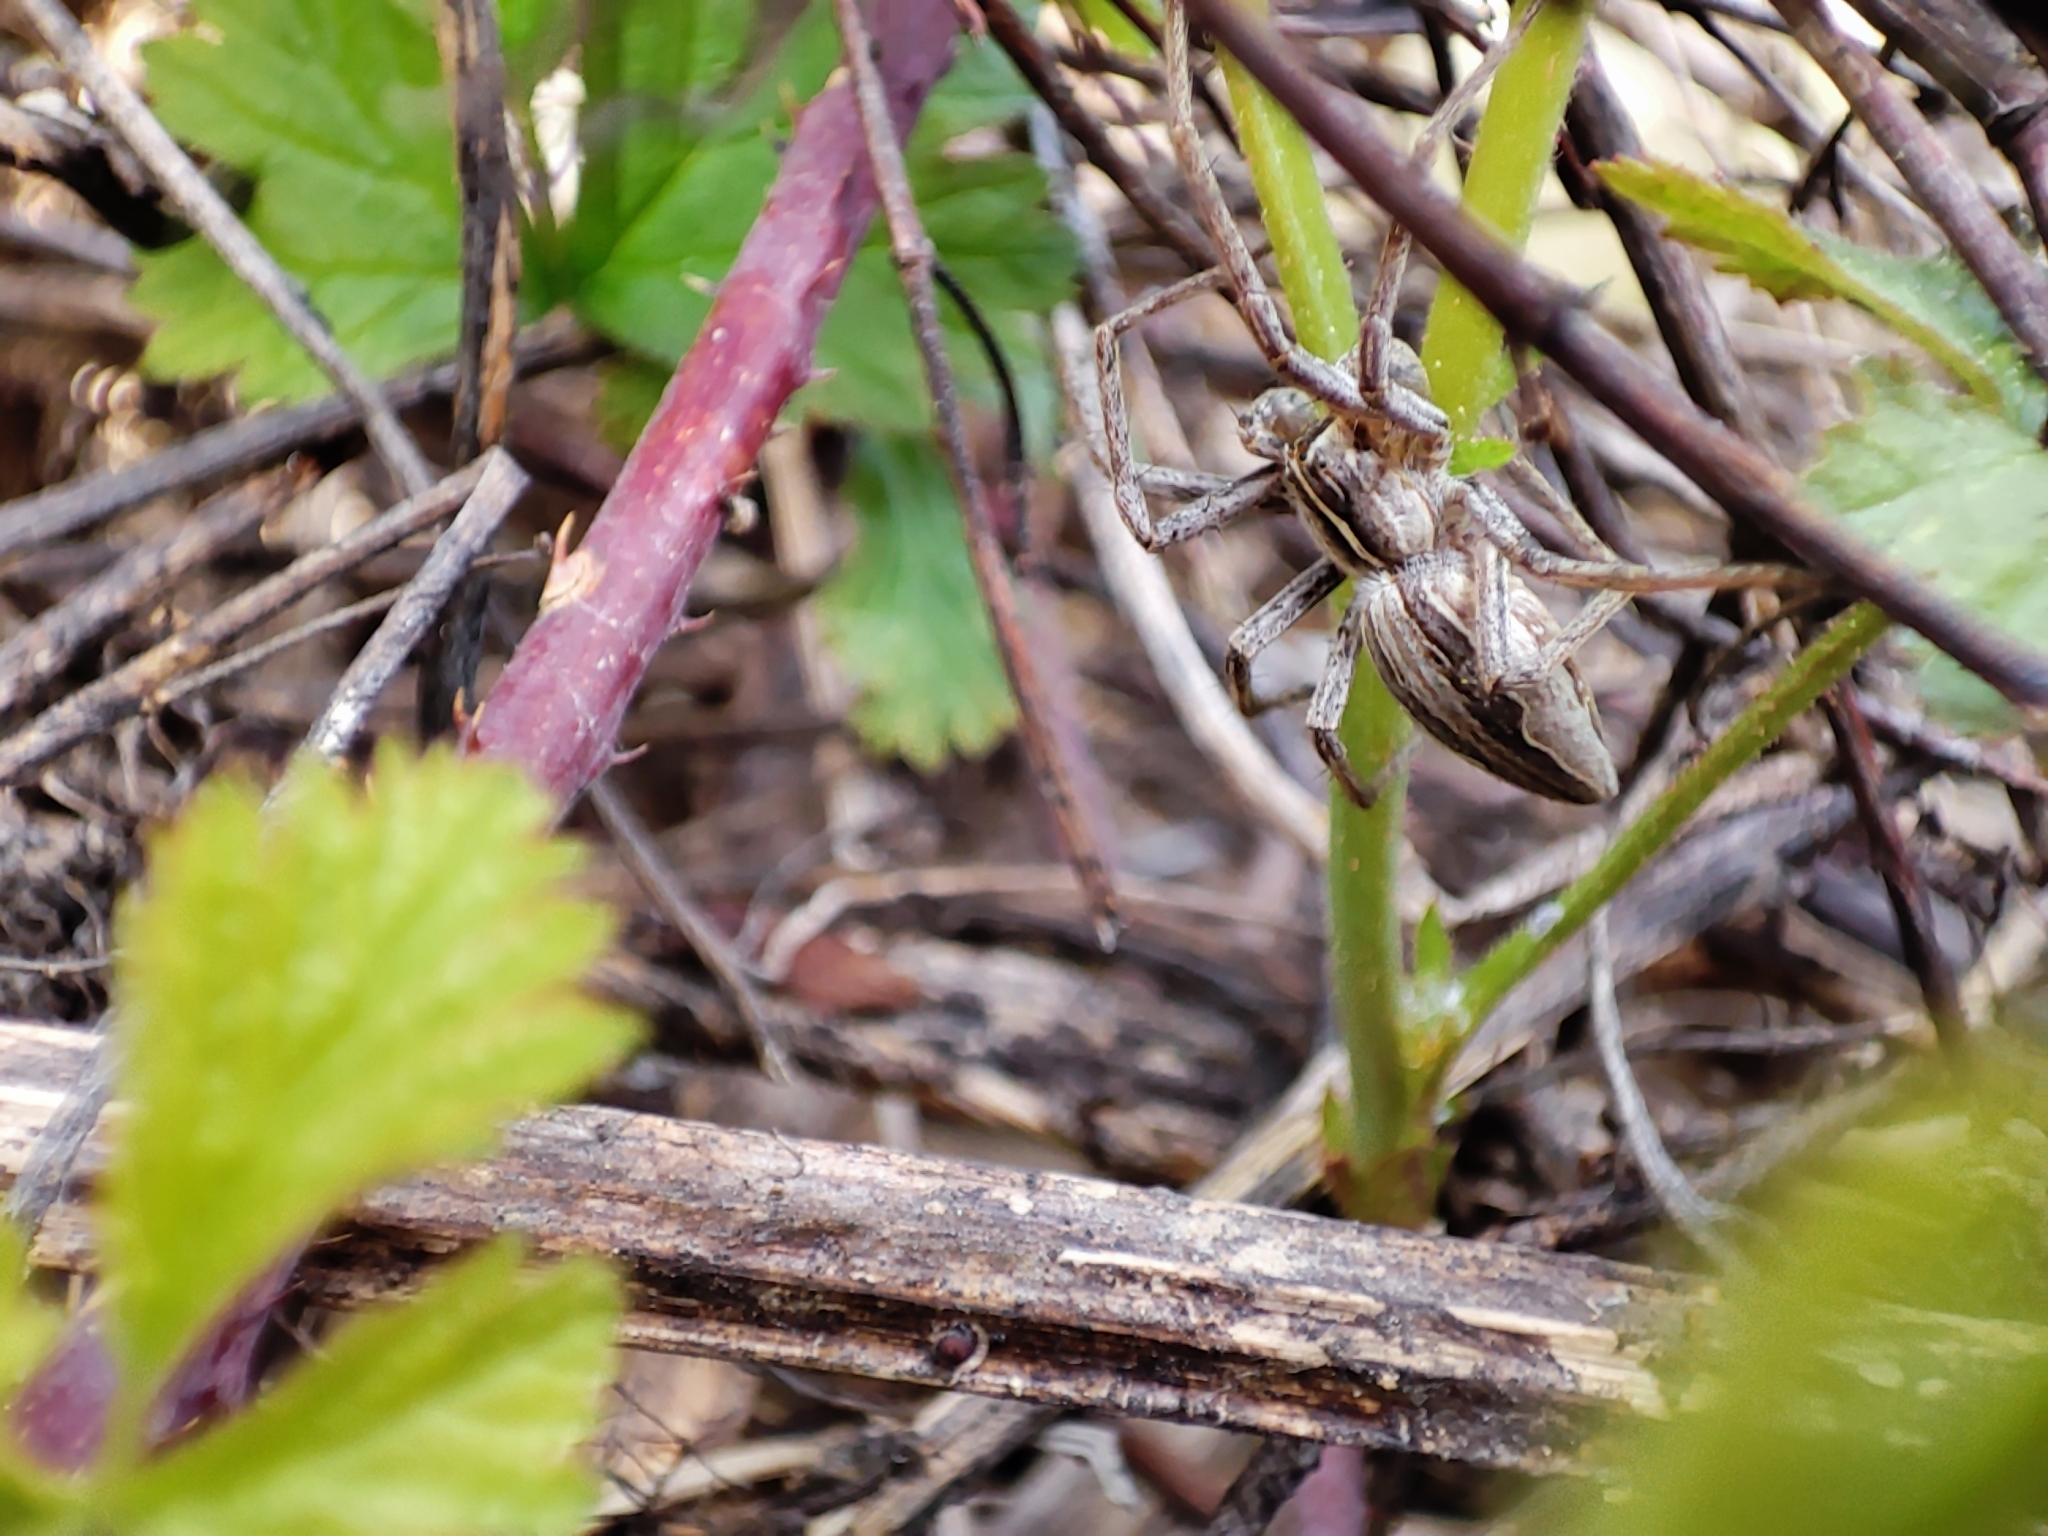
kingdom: Animalia
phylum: Arthropoda
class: Arachnida
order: Araneae
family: Pisauridae
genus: Pisaura
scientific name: Pisaura mirabilis
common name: Tent spider
